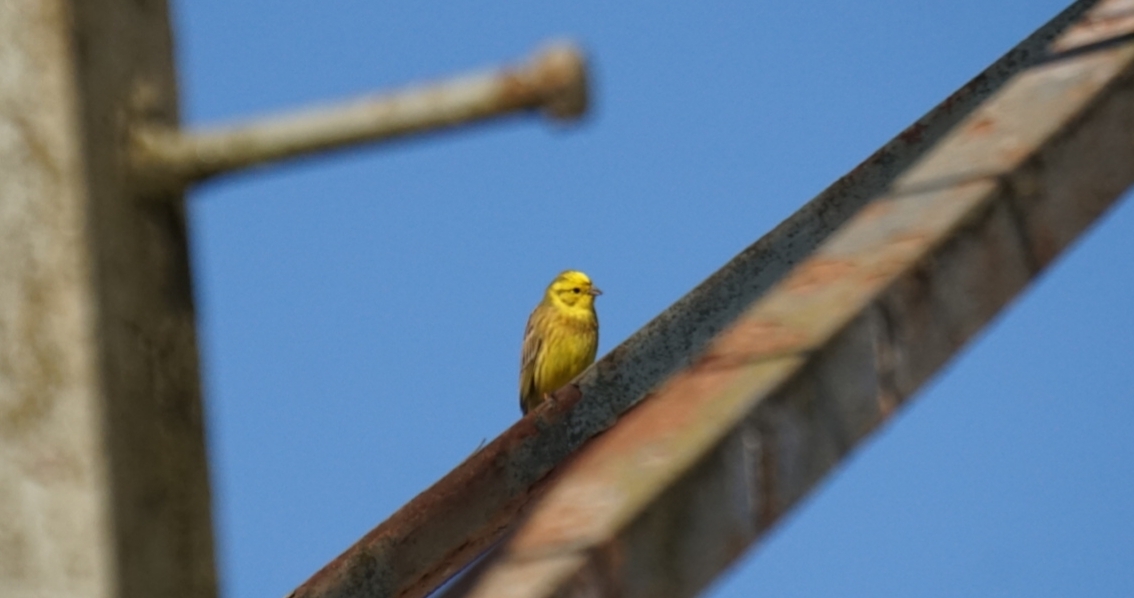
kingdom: Animalia
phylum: Chordata
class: Aves
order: Passeriformes
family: Emberizidae
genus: Emberiza
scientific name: Emberiza citrinella
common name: Yellowhammer
